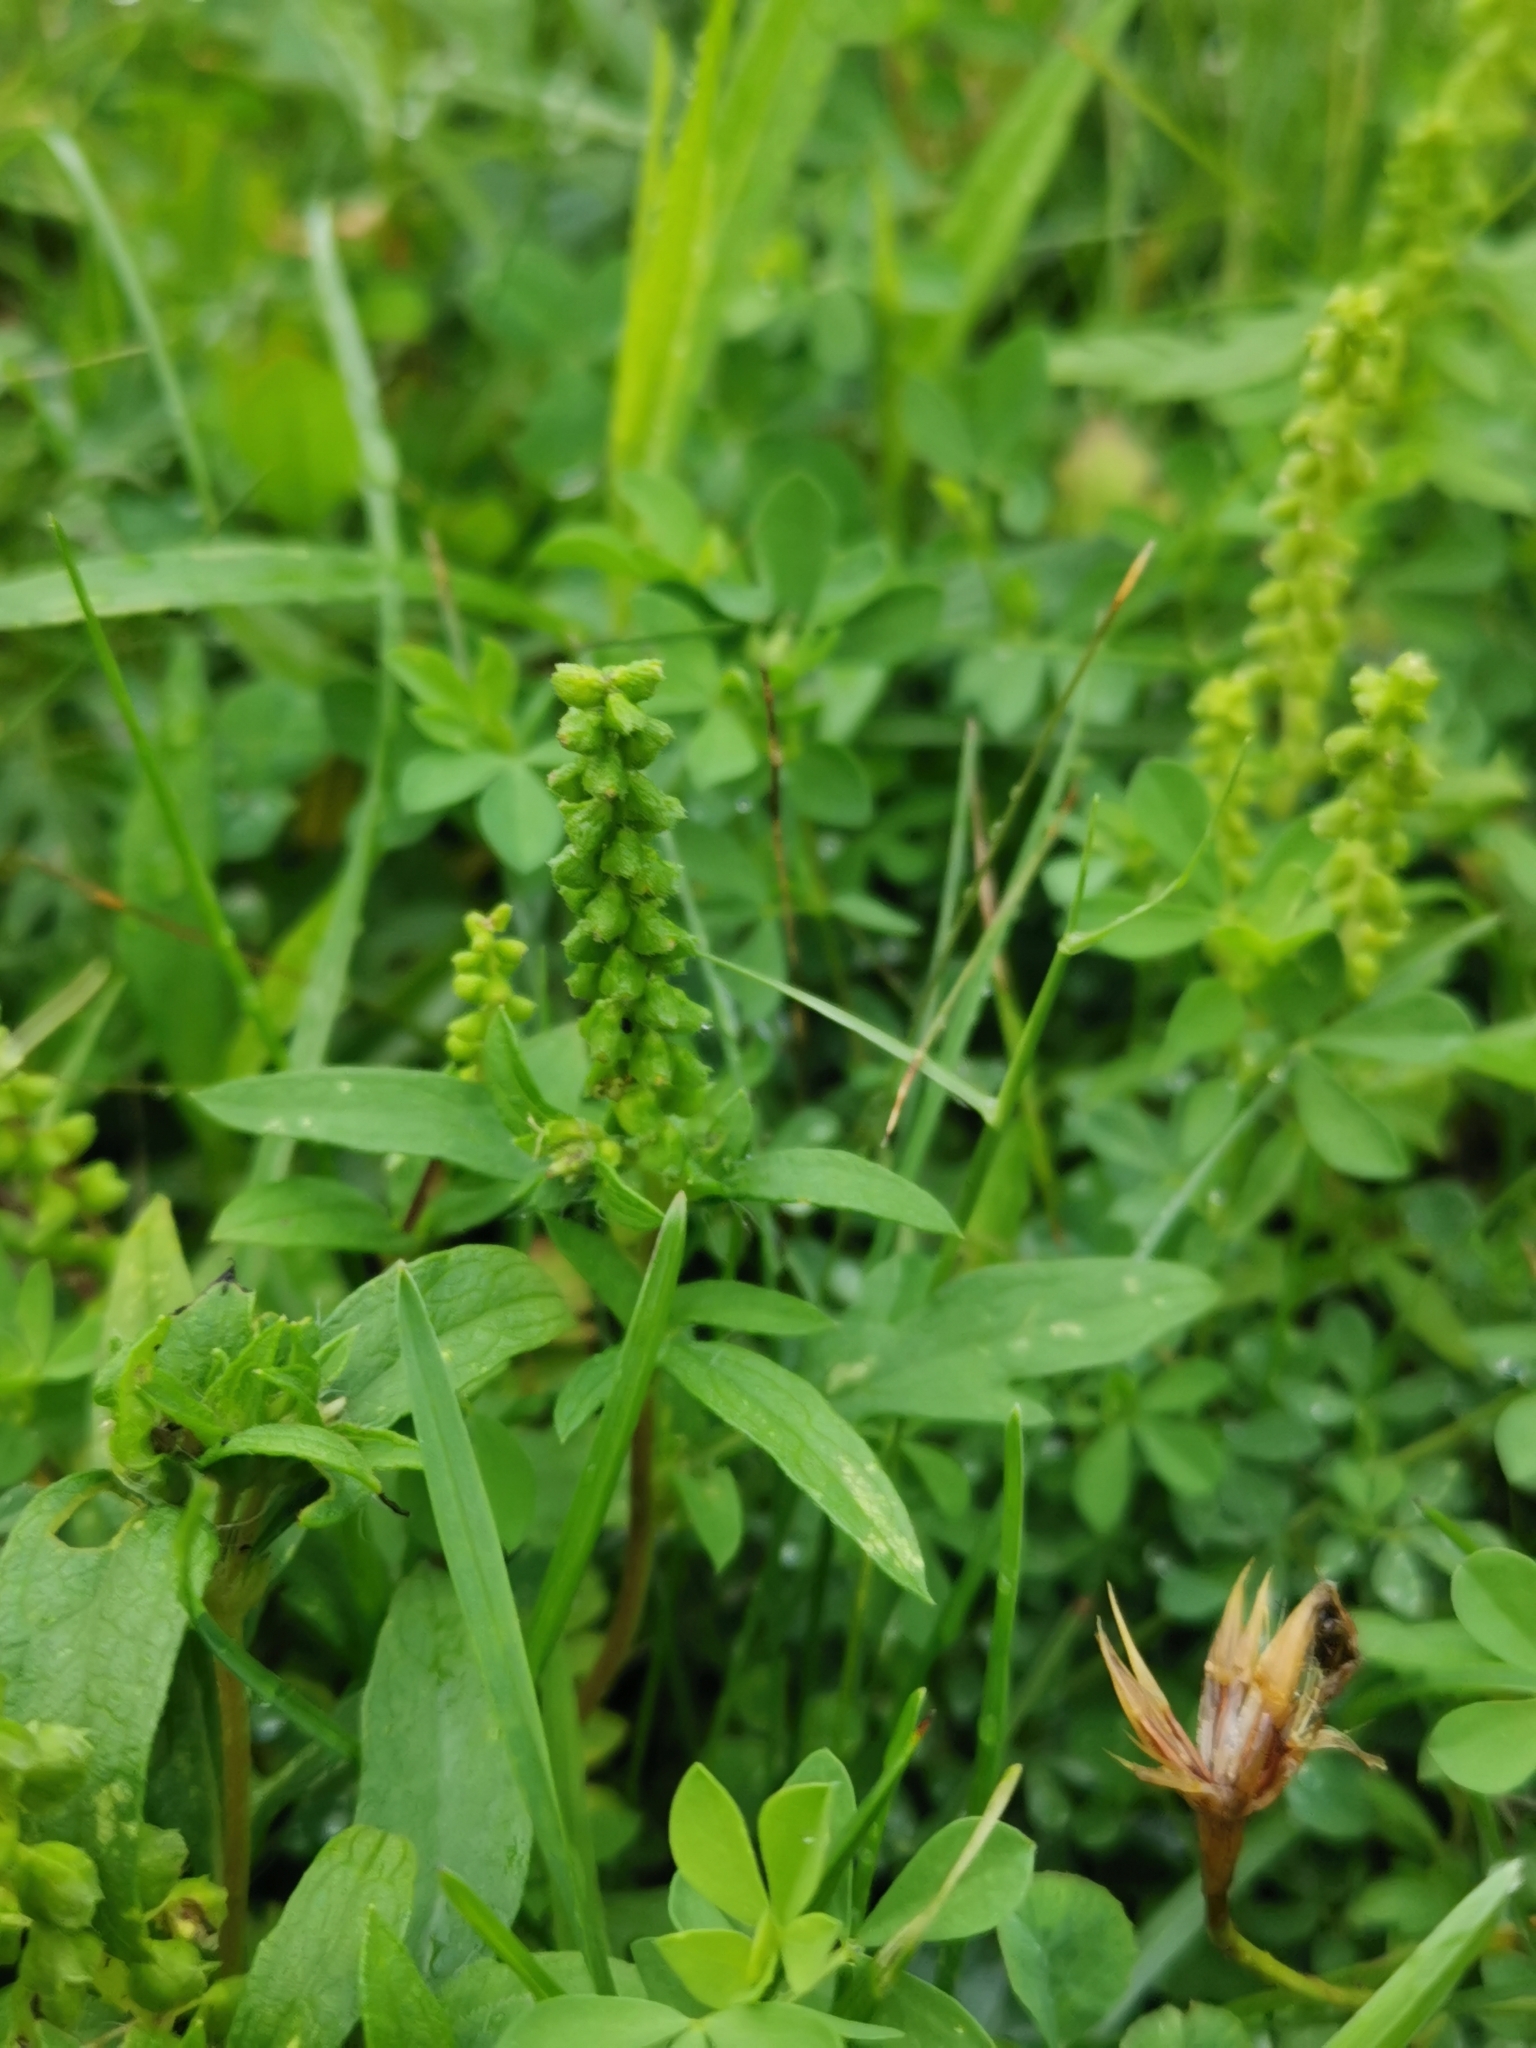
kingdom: Plantae
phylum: Tracheophyta
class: Magnoliopsida
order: Asterales
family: Asteraceae
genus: Ambrosia
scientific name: Ambrosia artemisiifolia
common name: Annual ragweed
